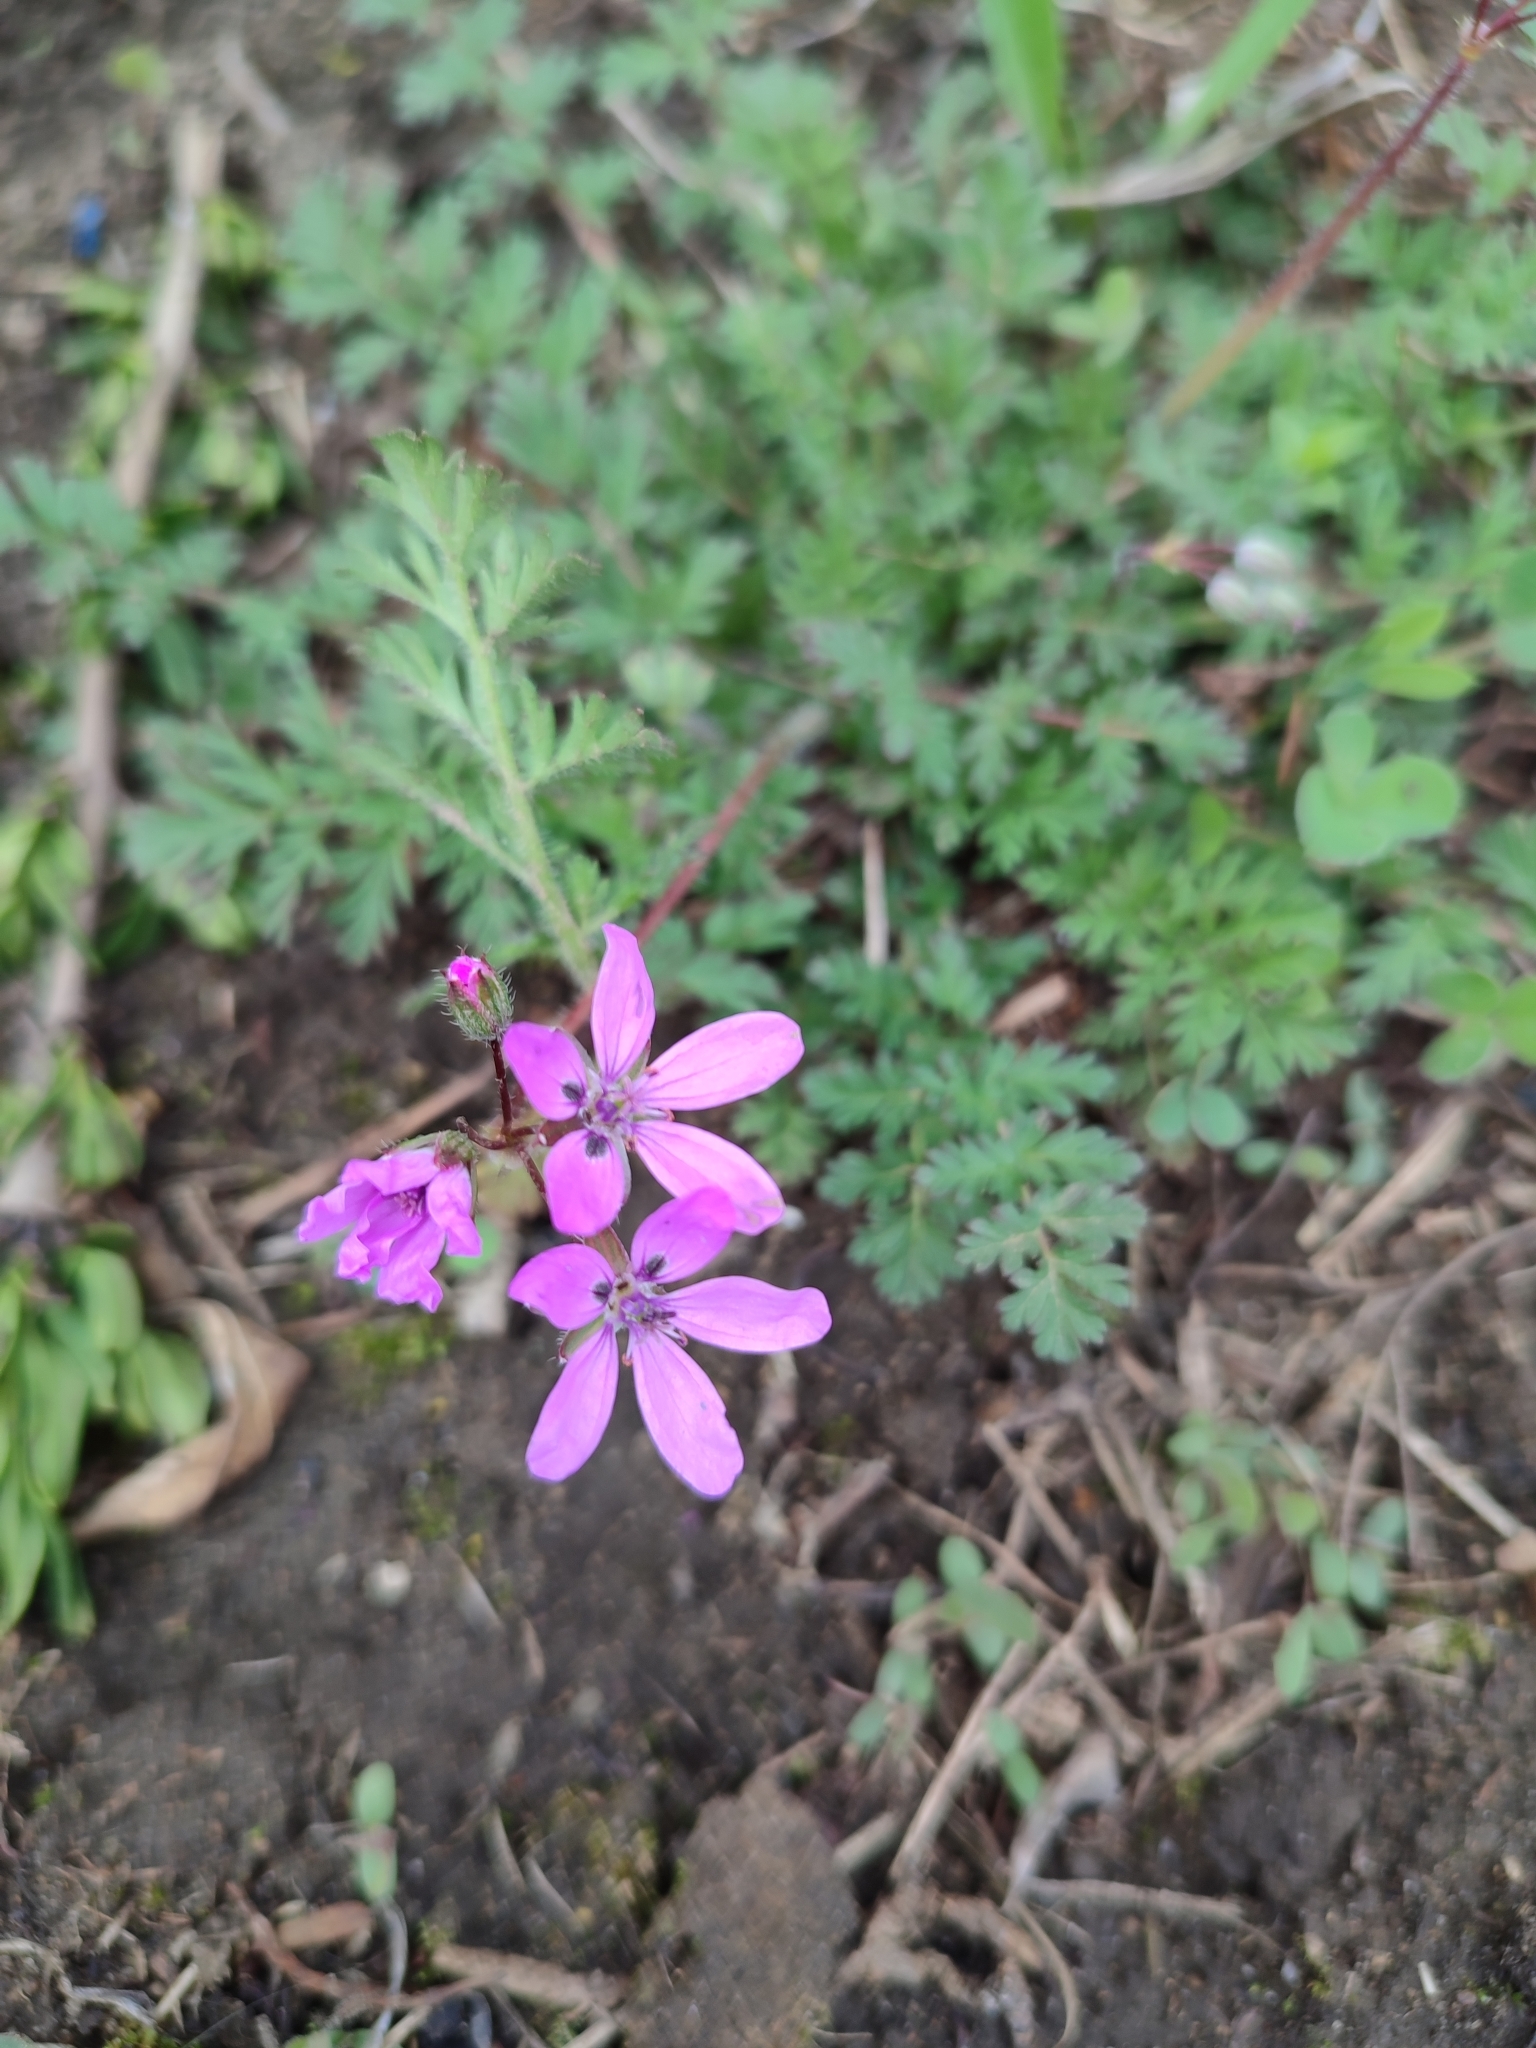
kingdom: Plantae
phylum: Tracheophyta
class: Magnoliopsida
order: Geraniales
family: Geraniaceae
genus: Erodium
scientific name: Erodium cicutarium
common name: Common stork's-bill
